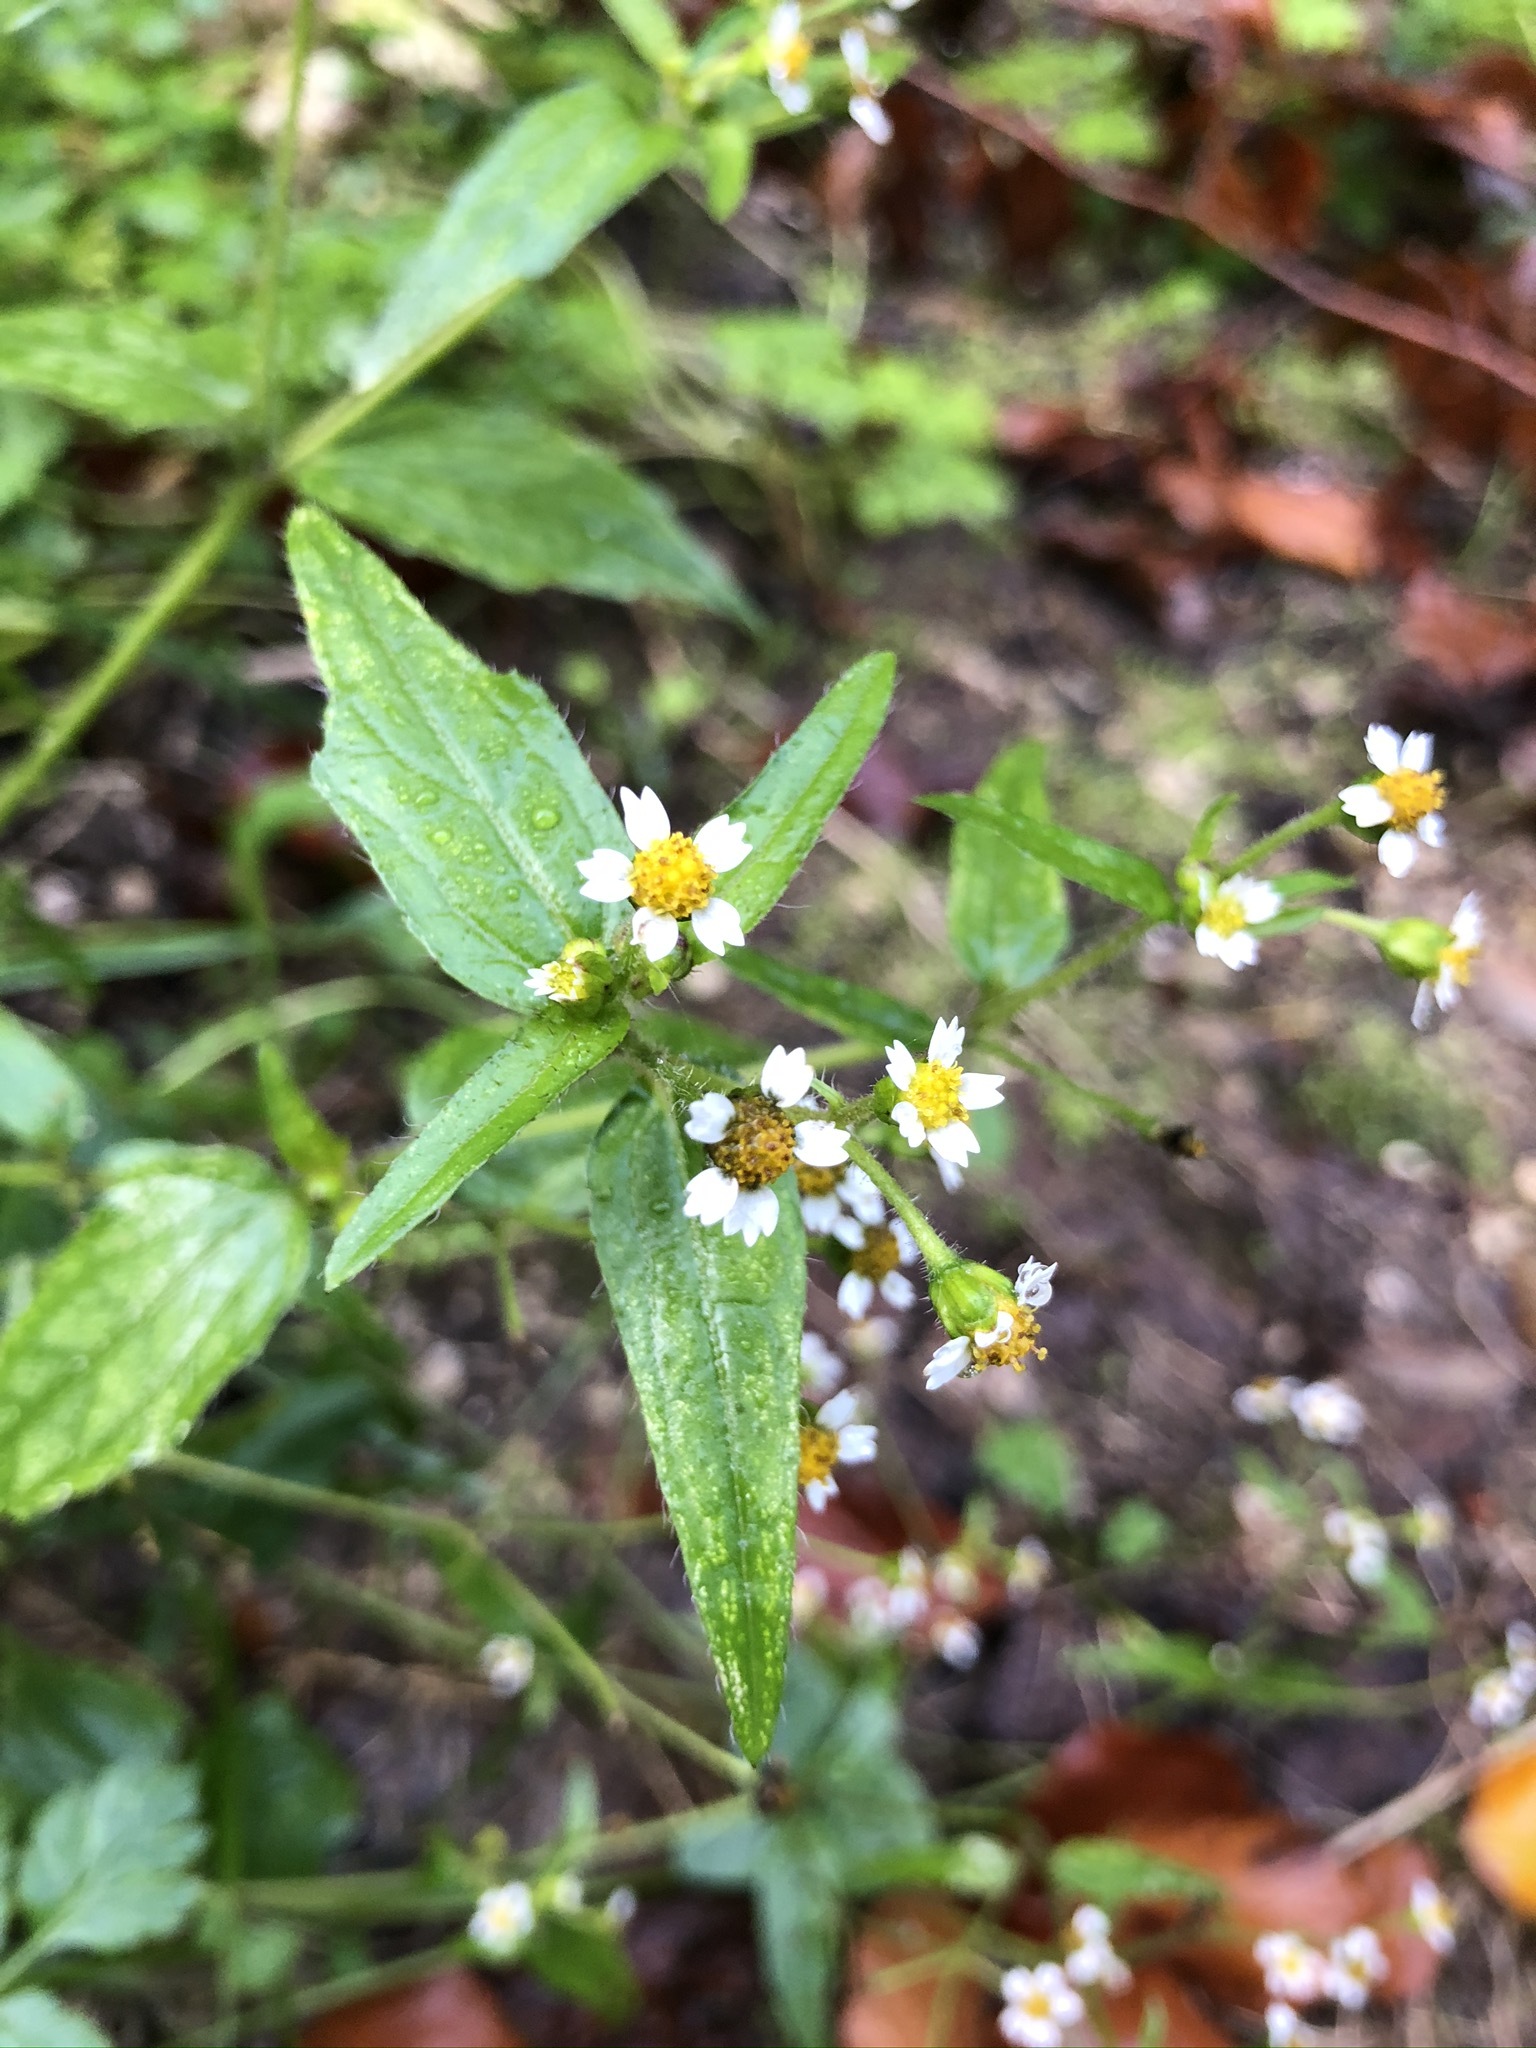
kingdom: Plantae
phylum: Tracheophyta
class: Magnoliopsida
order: Asterales
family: Asteraceae
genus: Galinsoga
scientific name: Galinsoga quadriradiata
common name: Shaggy soldier
